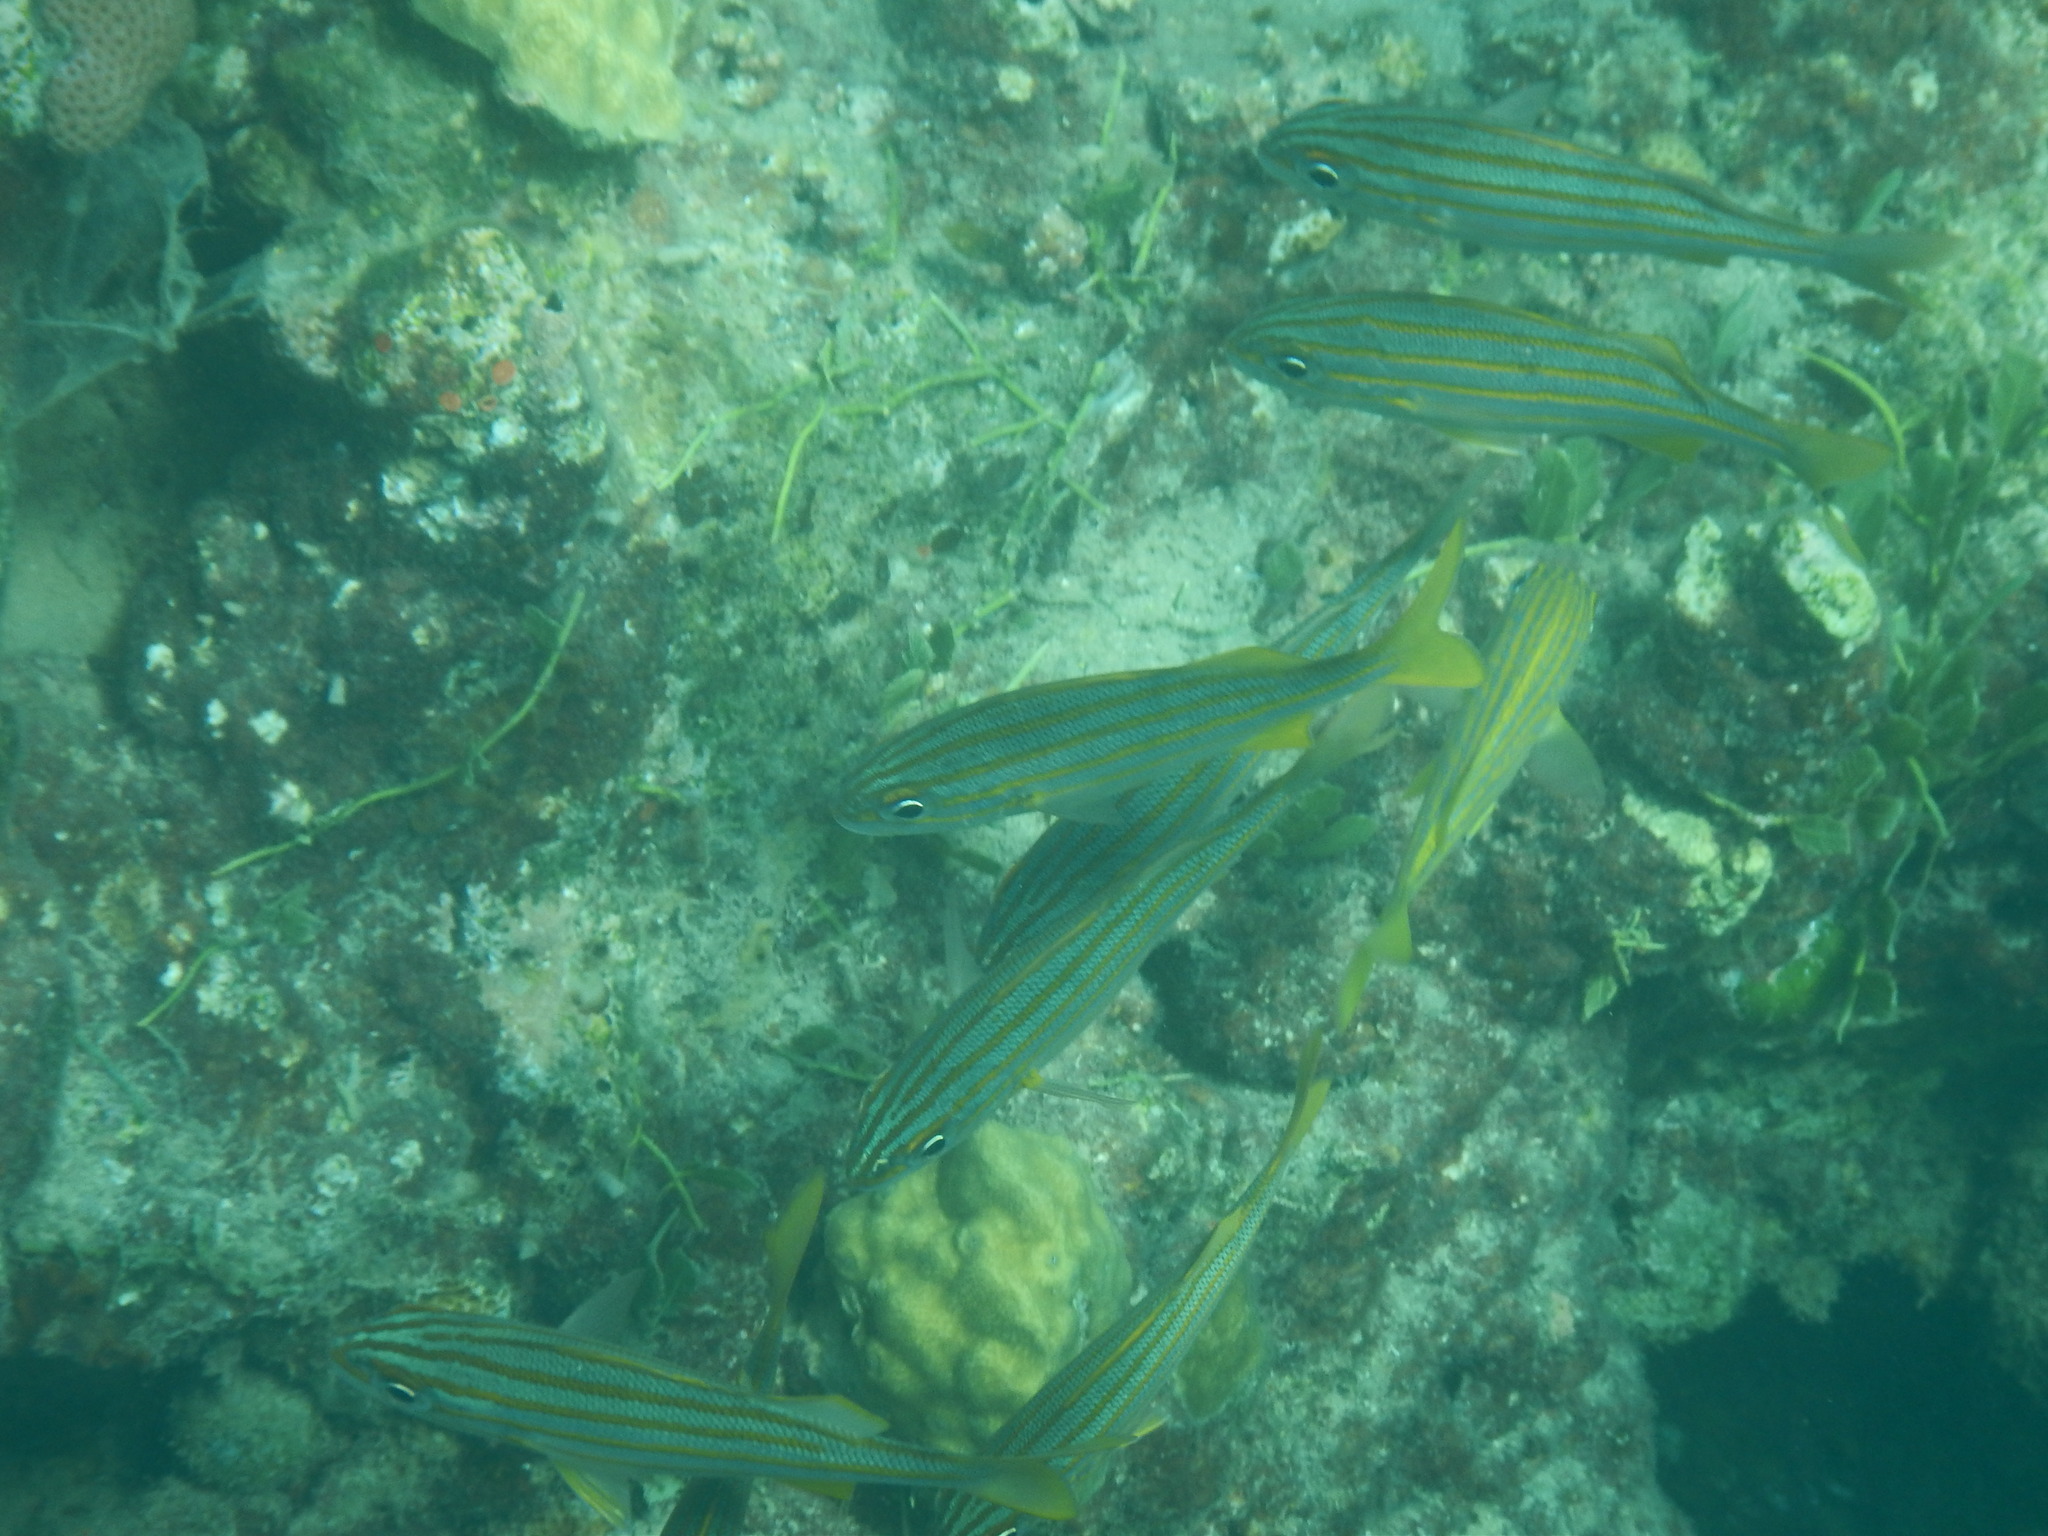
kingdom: Animalia
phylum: Chordata
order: Perciformes
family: Haemulidae
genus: Haemulon
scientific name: Haemulon chrysargyreum
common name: Smallmouth grunt
